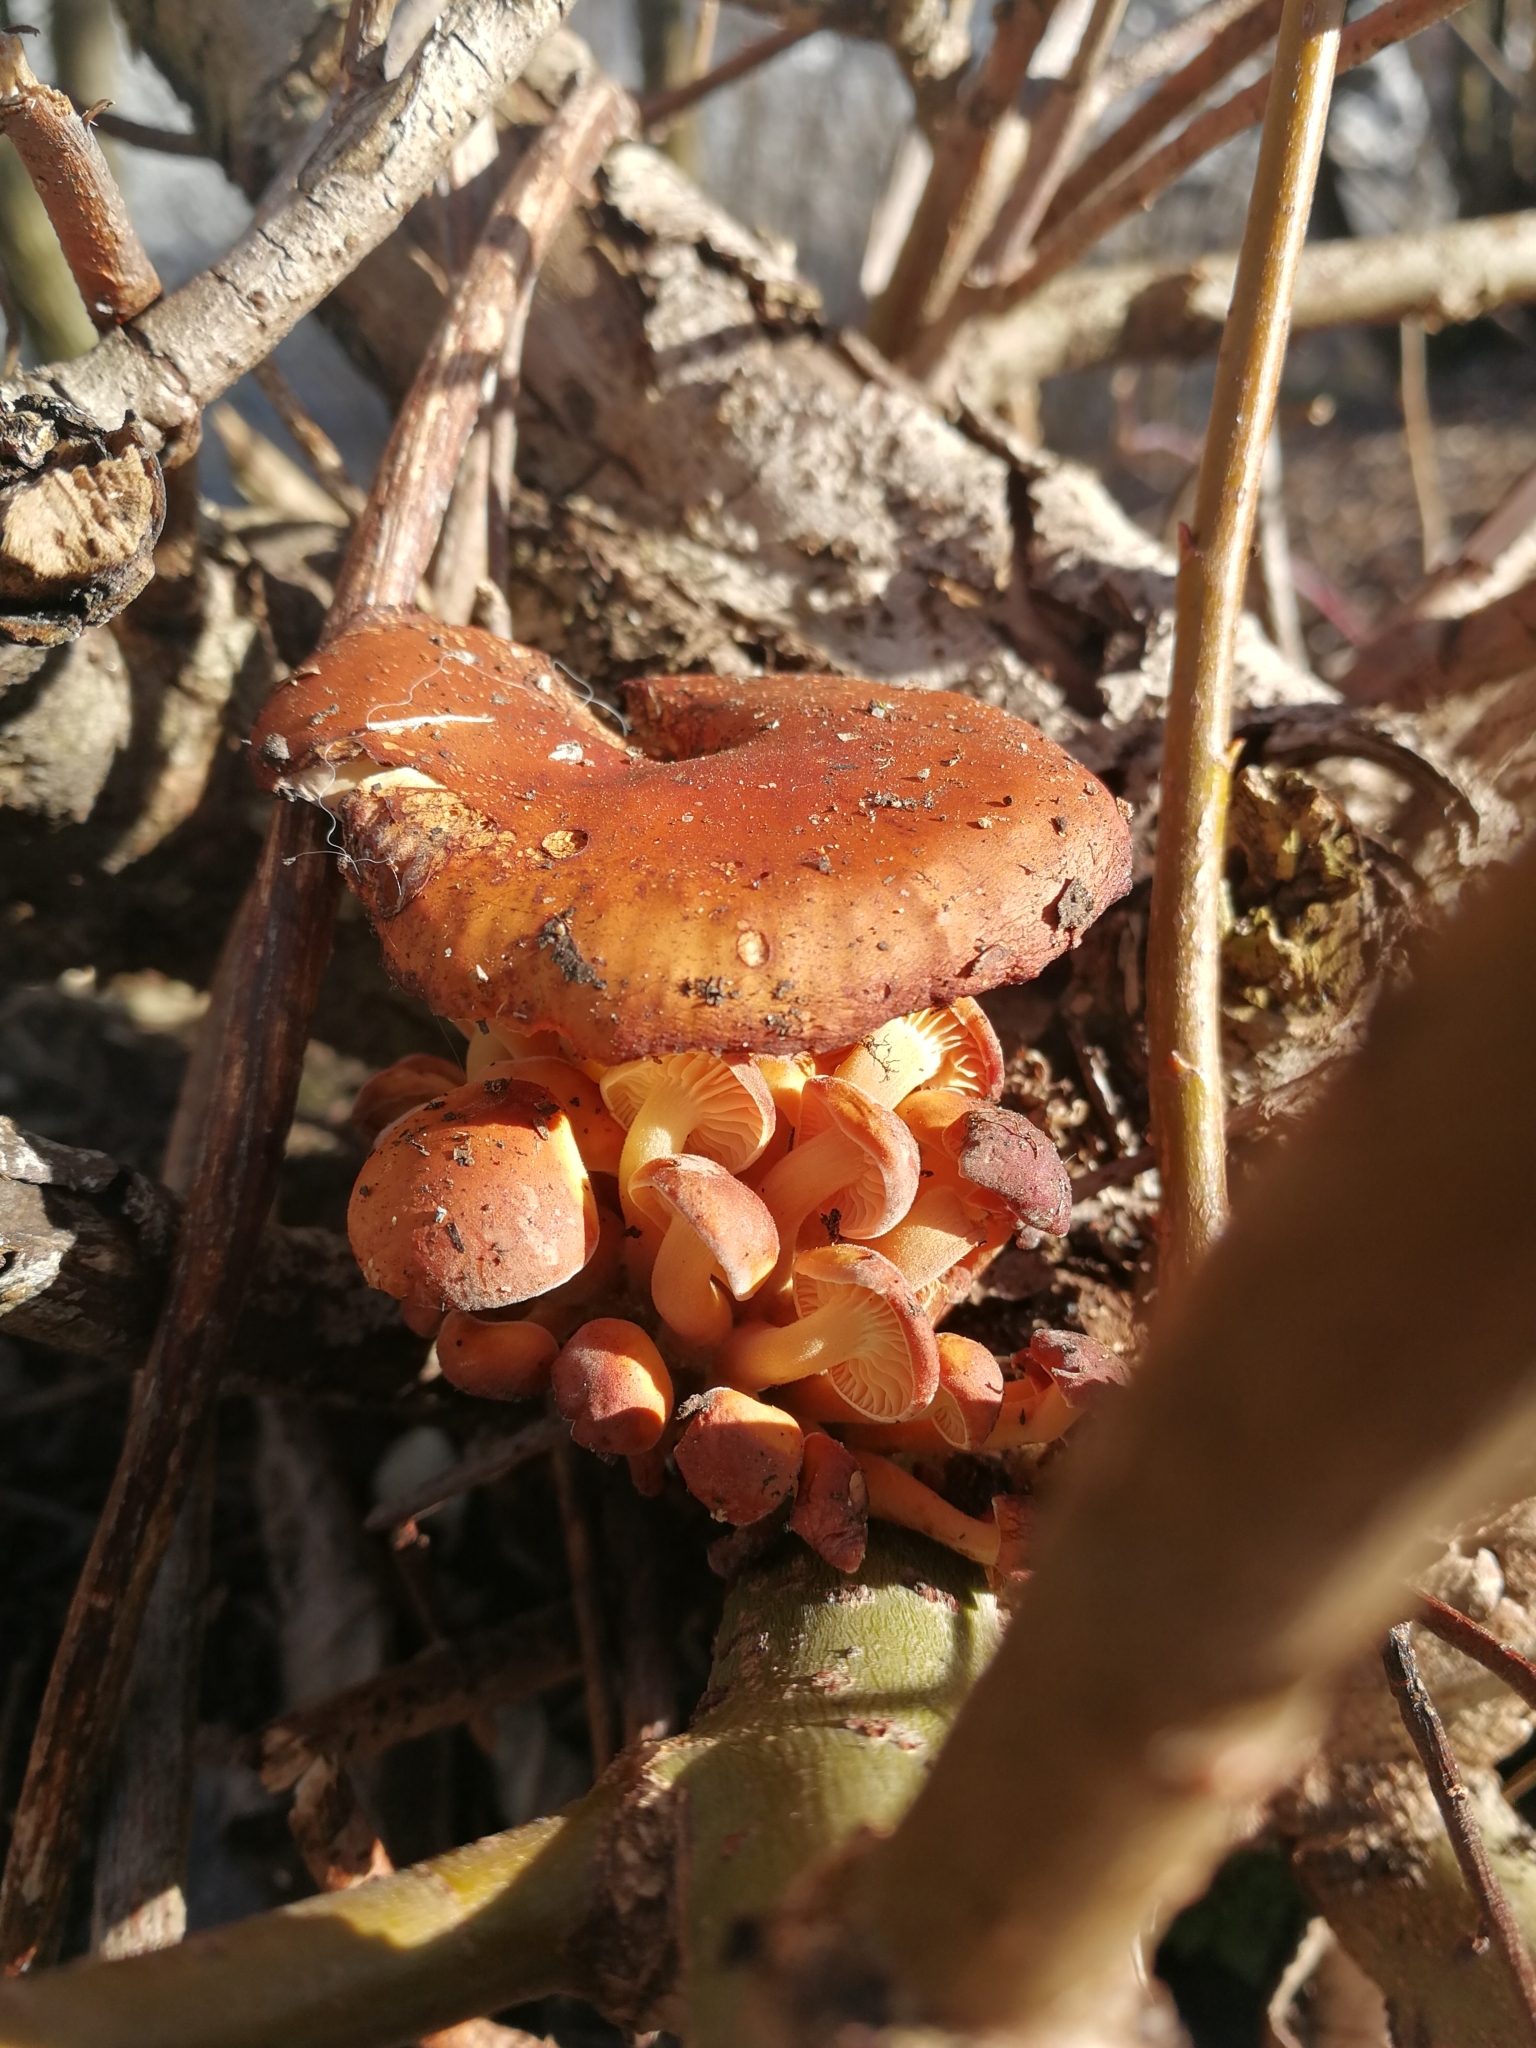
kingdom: Fungi
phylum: Basidiomycota
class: Agaricomycetes
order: Agaricales
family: Physalacriaceae
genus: Flammulina
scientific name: Flammulina
